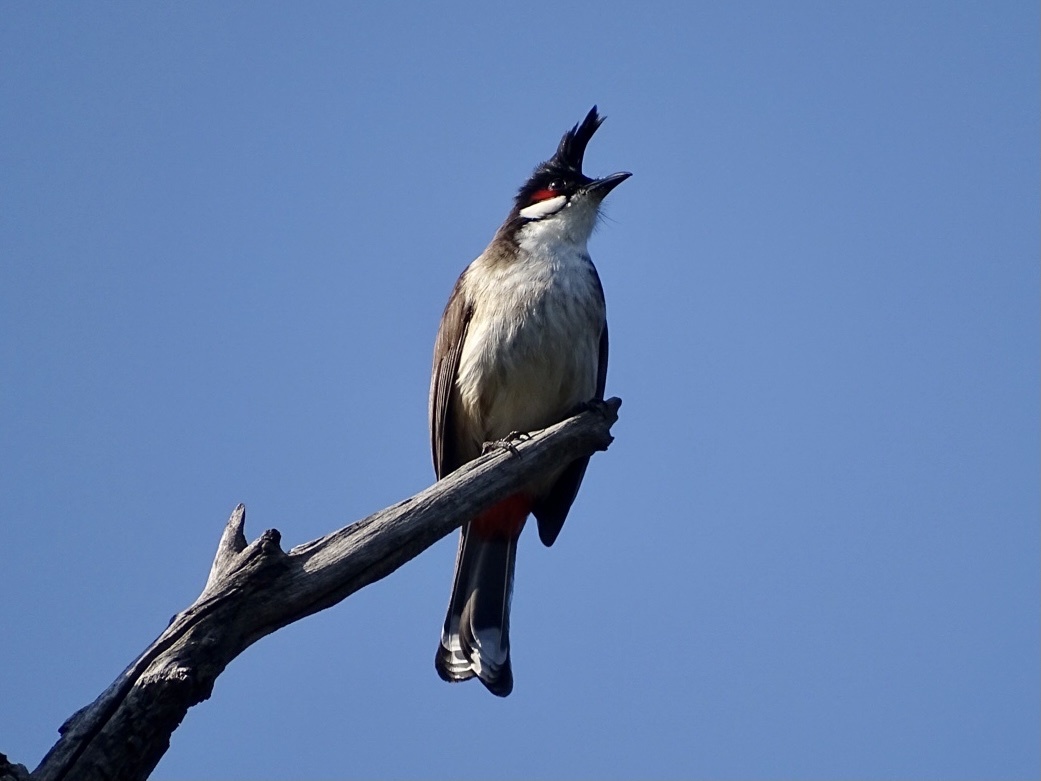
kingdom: Animalia
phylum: Chordata
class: Aves
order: Passeriformes
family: Pycnonotidae
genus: Pycnonotus
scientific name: Pycnonotus jocosus
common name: Red-whiskered bulbul
